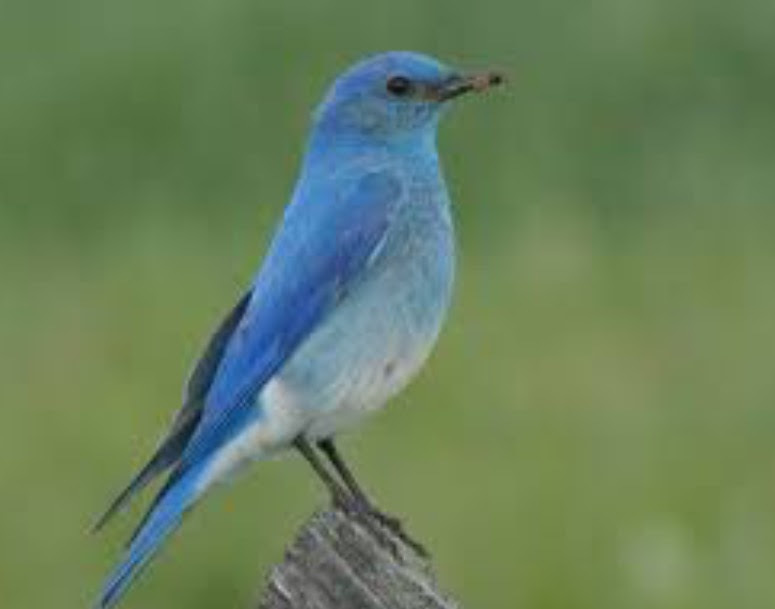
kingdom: Animalia
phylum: Chordata
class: Aves
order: Passeriformes
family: Turdidae
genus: Sialia
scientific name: Sialia currucoides
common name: Mountain bluebird
